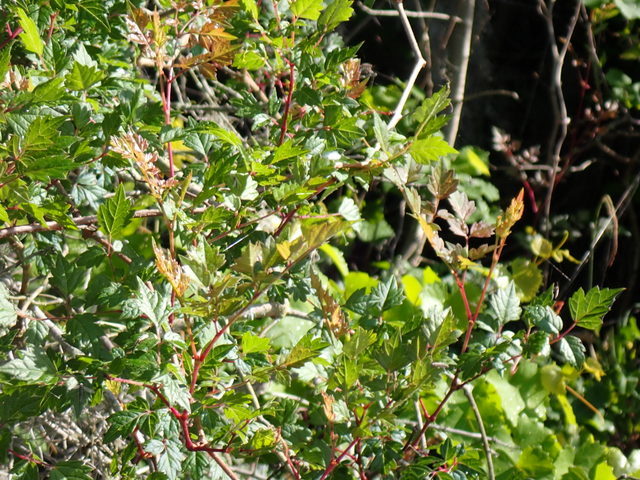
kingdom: Plantae
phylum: Tracheophyta
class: Magnoliopsida
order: Vitales
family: Vitaceae
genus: Nekemias
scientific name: Nekemias arborea
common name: Peppervine
